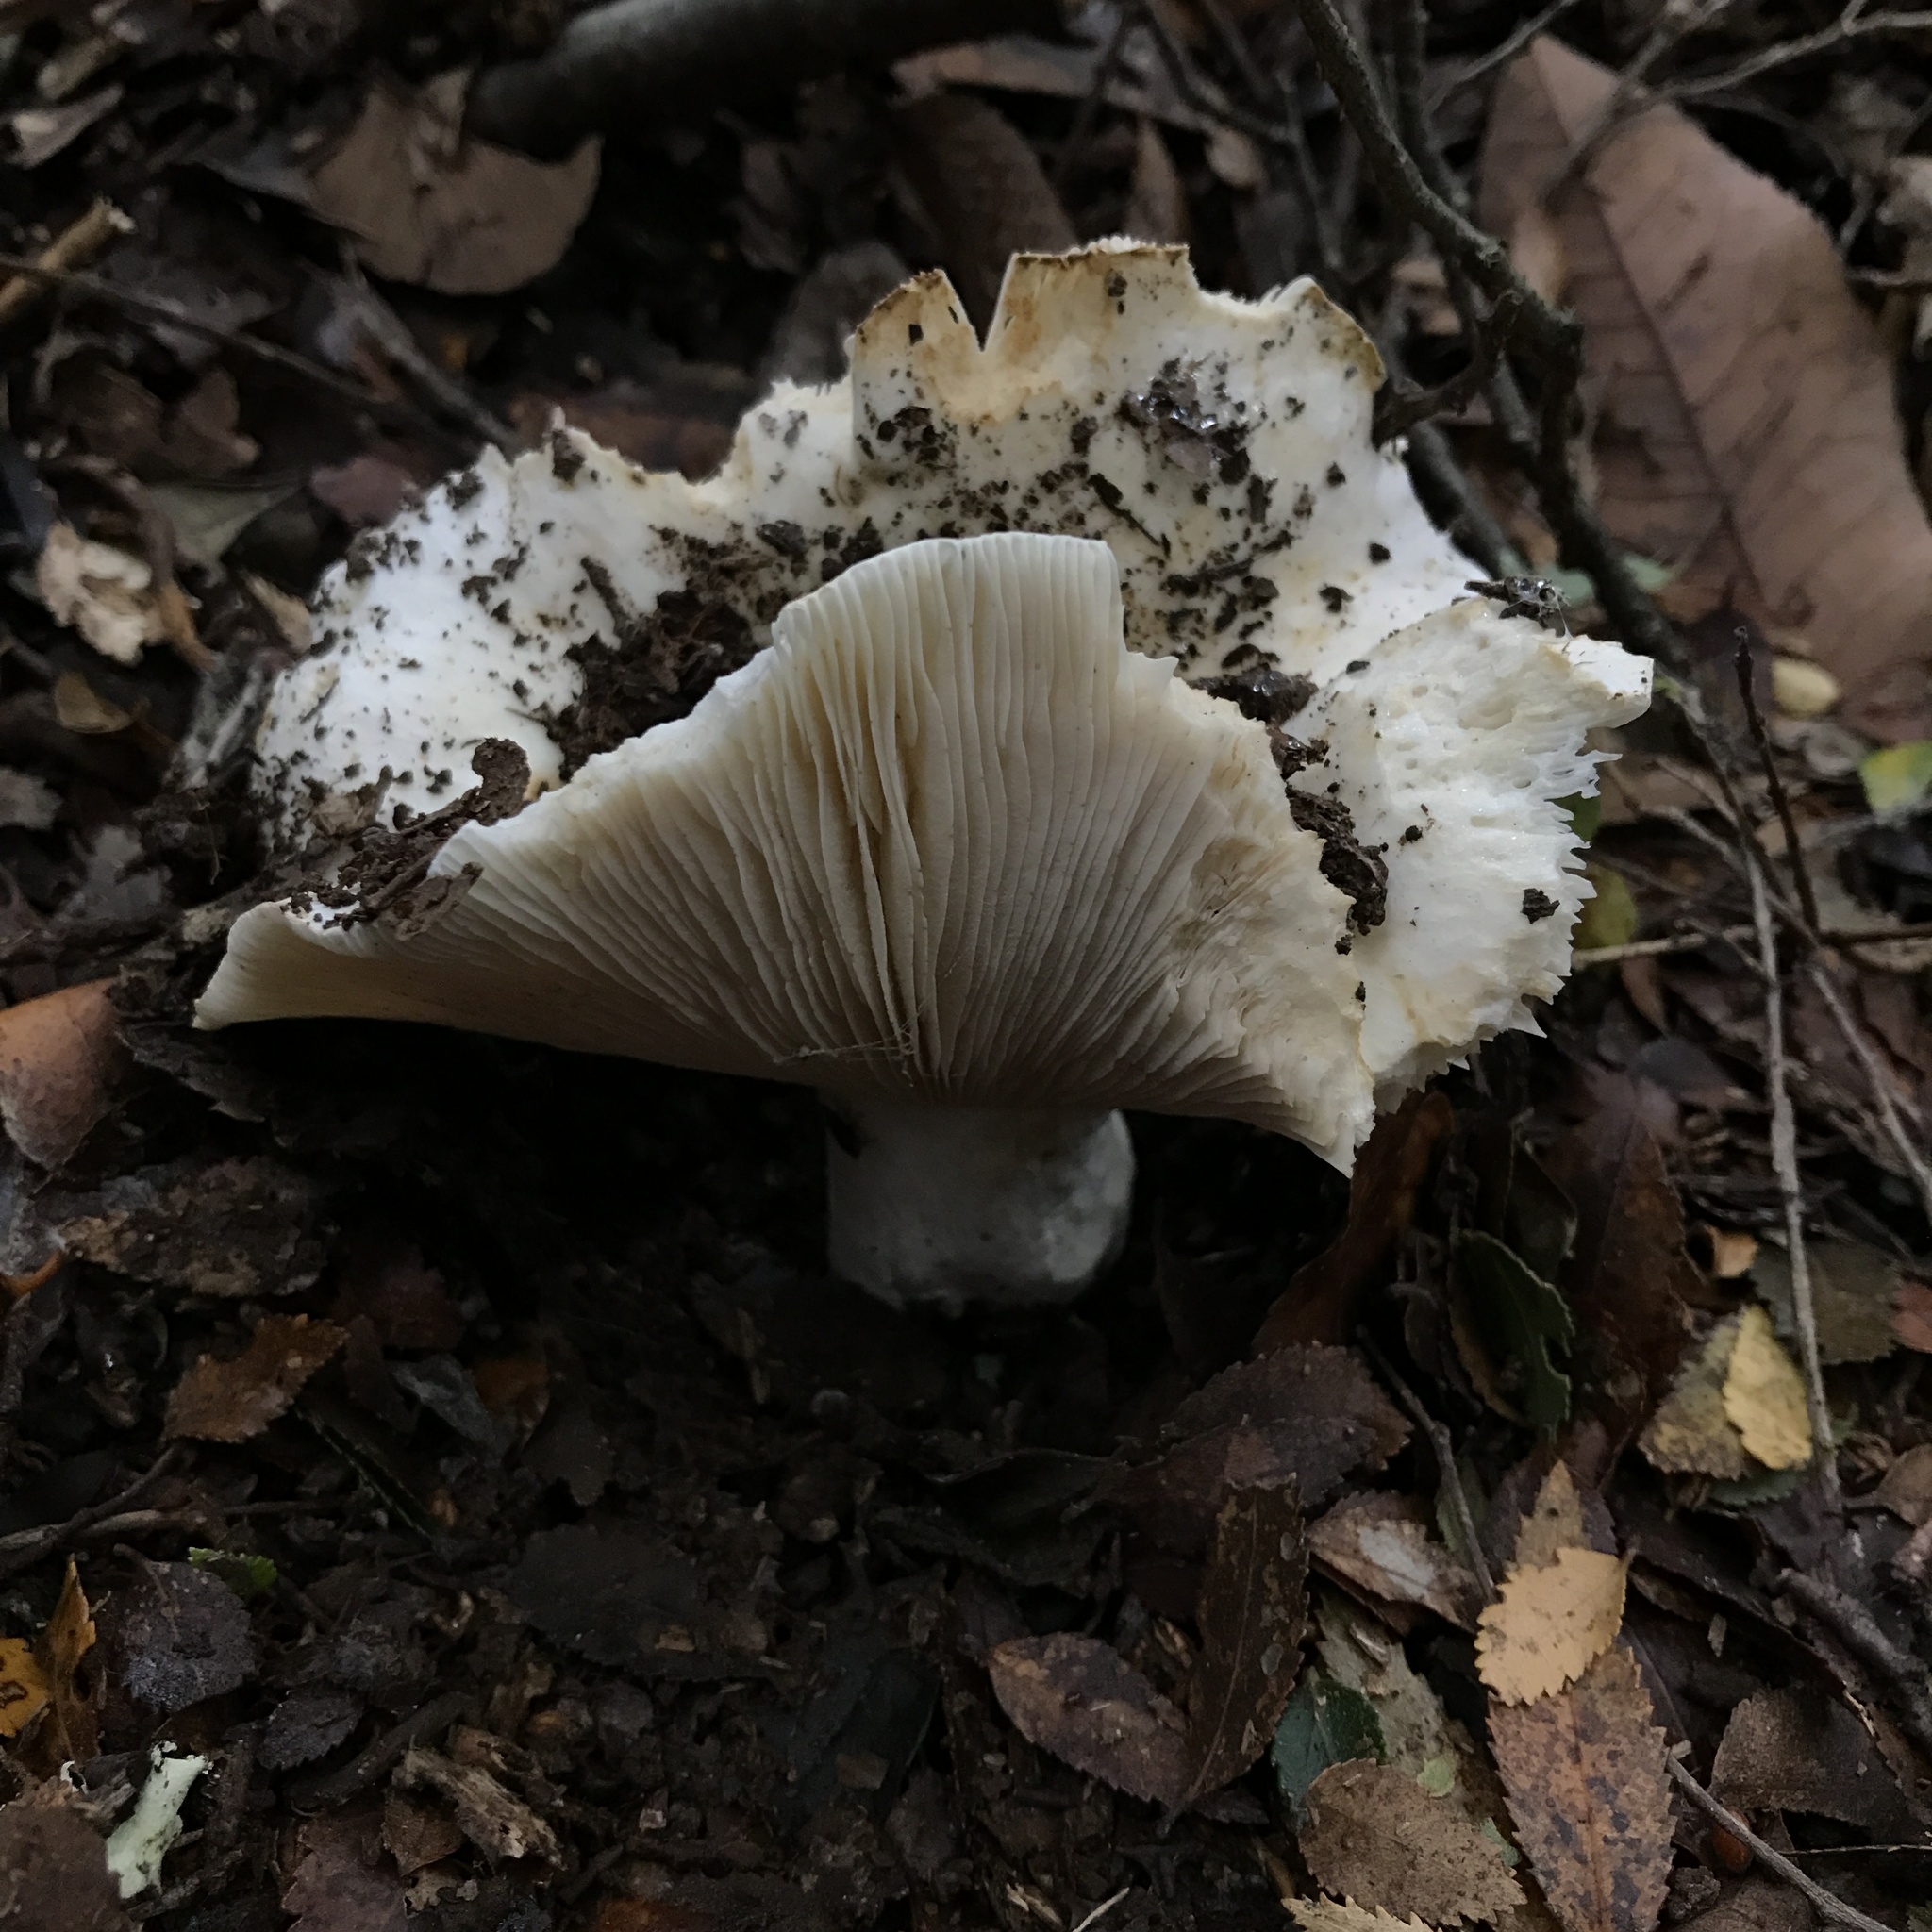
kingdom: Fungi
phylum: Basidiomycota
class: Agaricomycetes
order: Russulales
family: Russulaceae
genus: Russula
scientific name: Russula fuegiana
